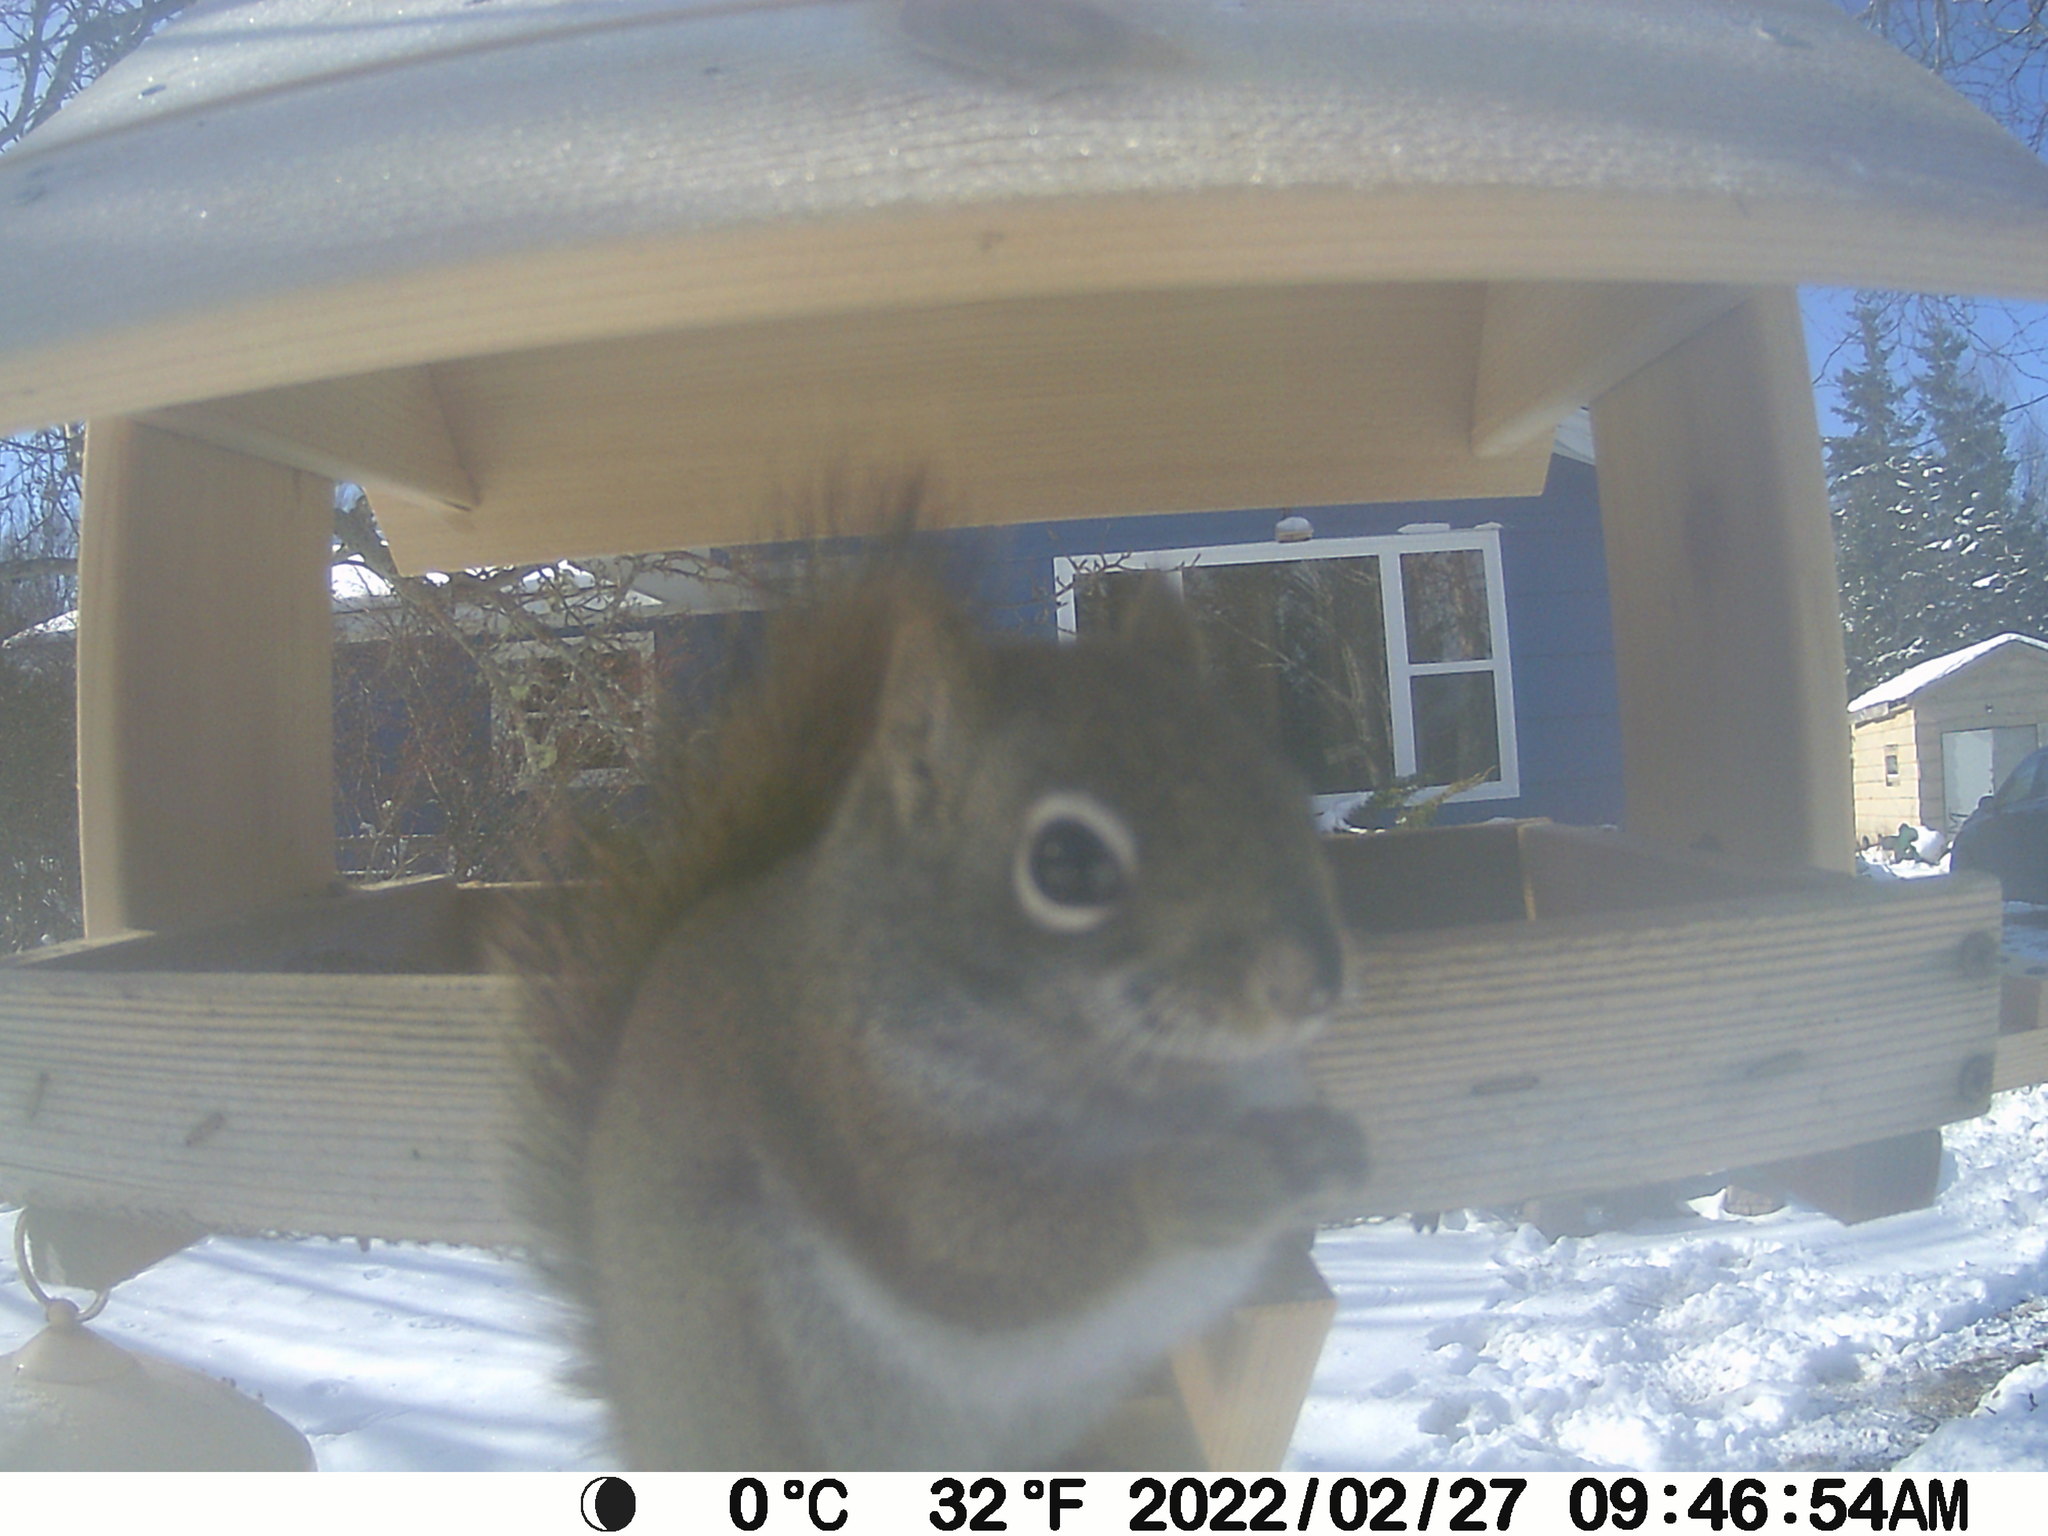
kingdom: Animalia
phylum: Chordata
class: Mammalia
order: Rodentia
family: Sciuridae
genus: Tamiasciurus
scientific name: Tamiasciurus hudsonicus
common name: Red squirrel
